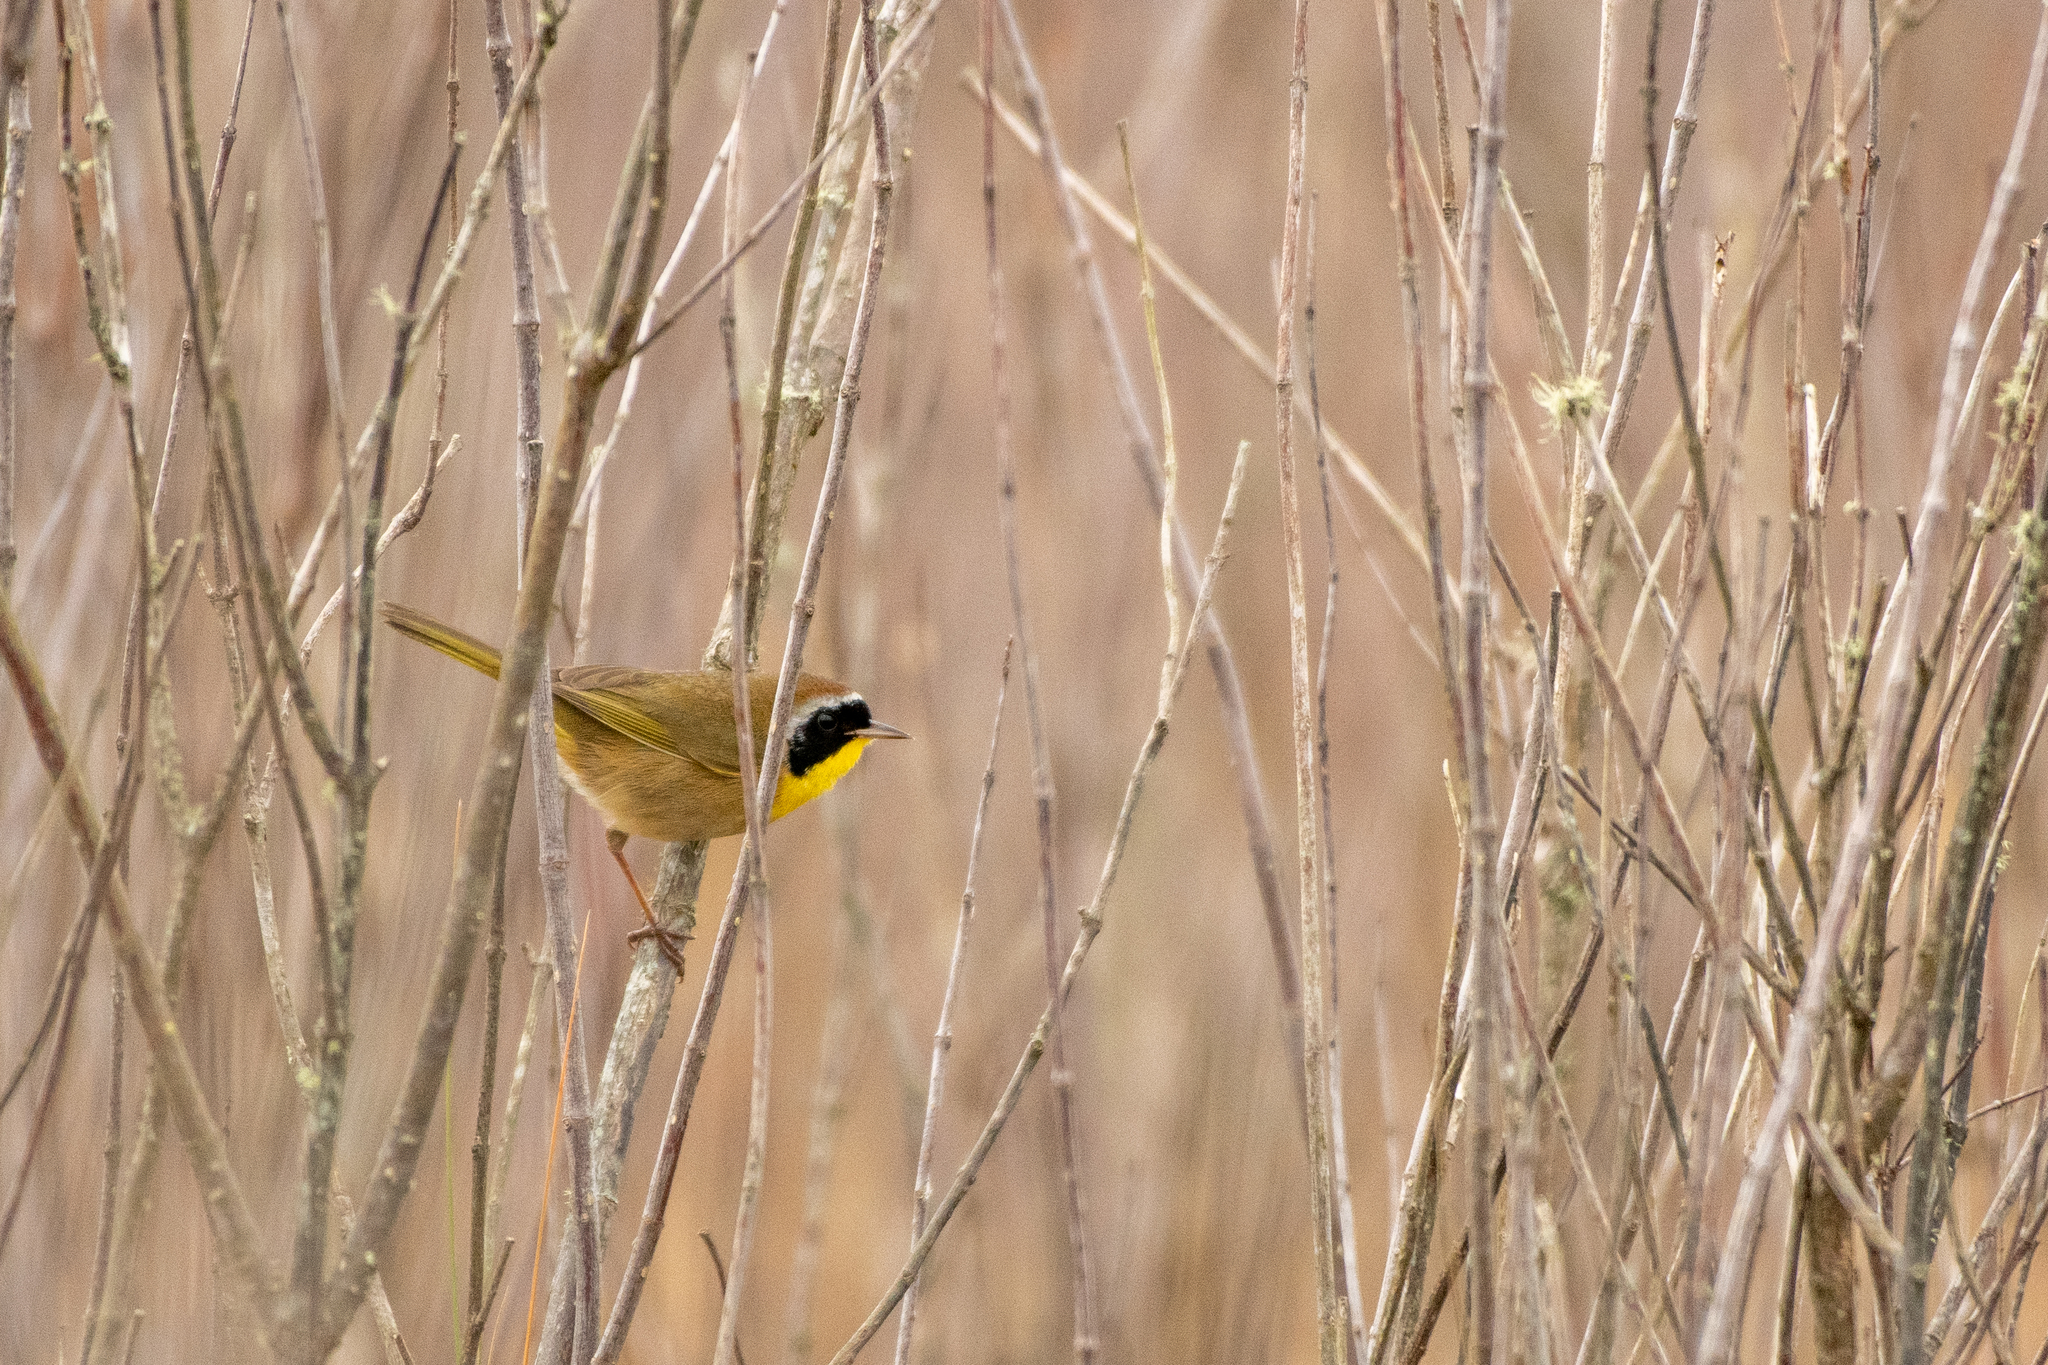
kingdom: Animalia
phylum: Chordata
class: Aves
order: Passeriformes
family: Parulidae
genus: Geothlypis
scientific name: Geothlypis trichas
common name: Common yellowthroat
